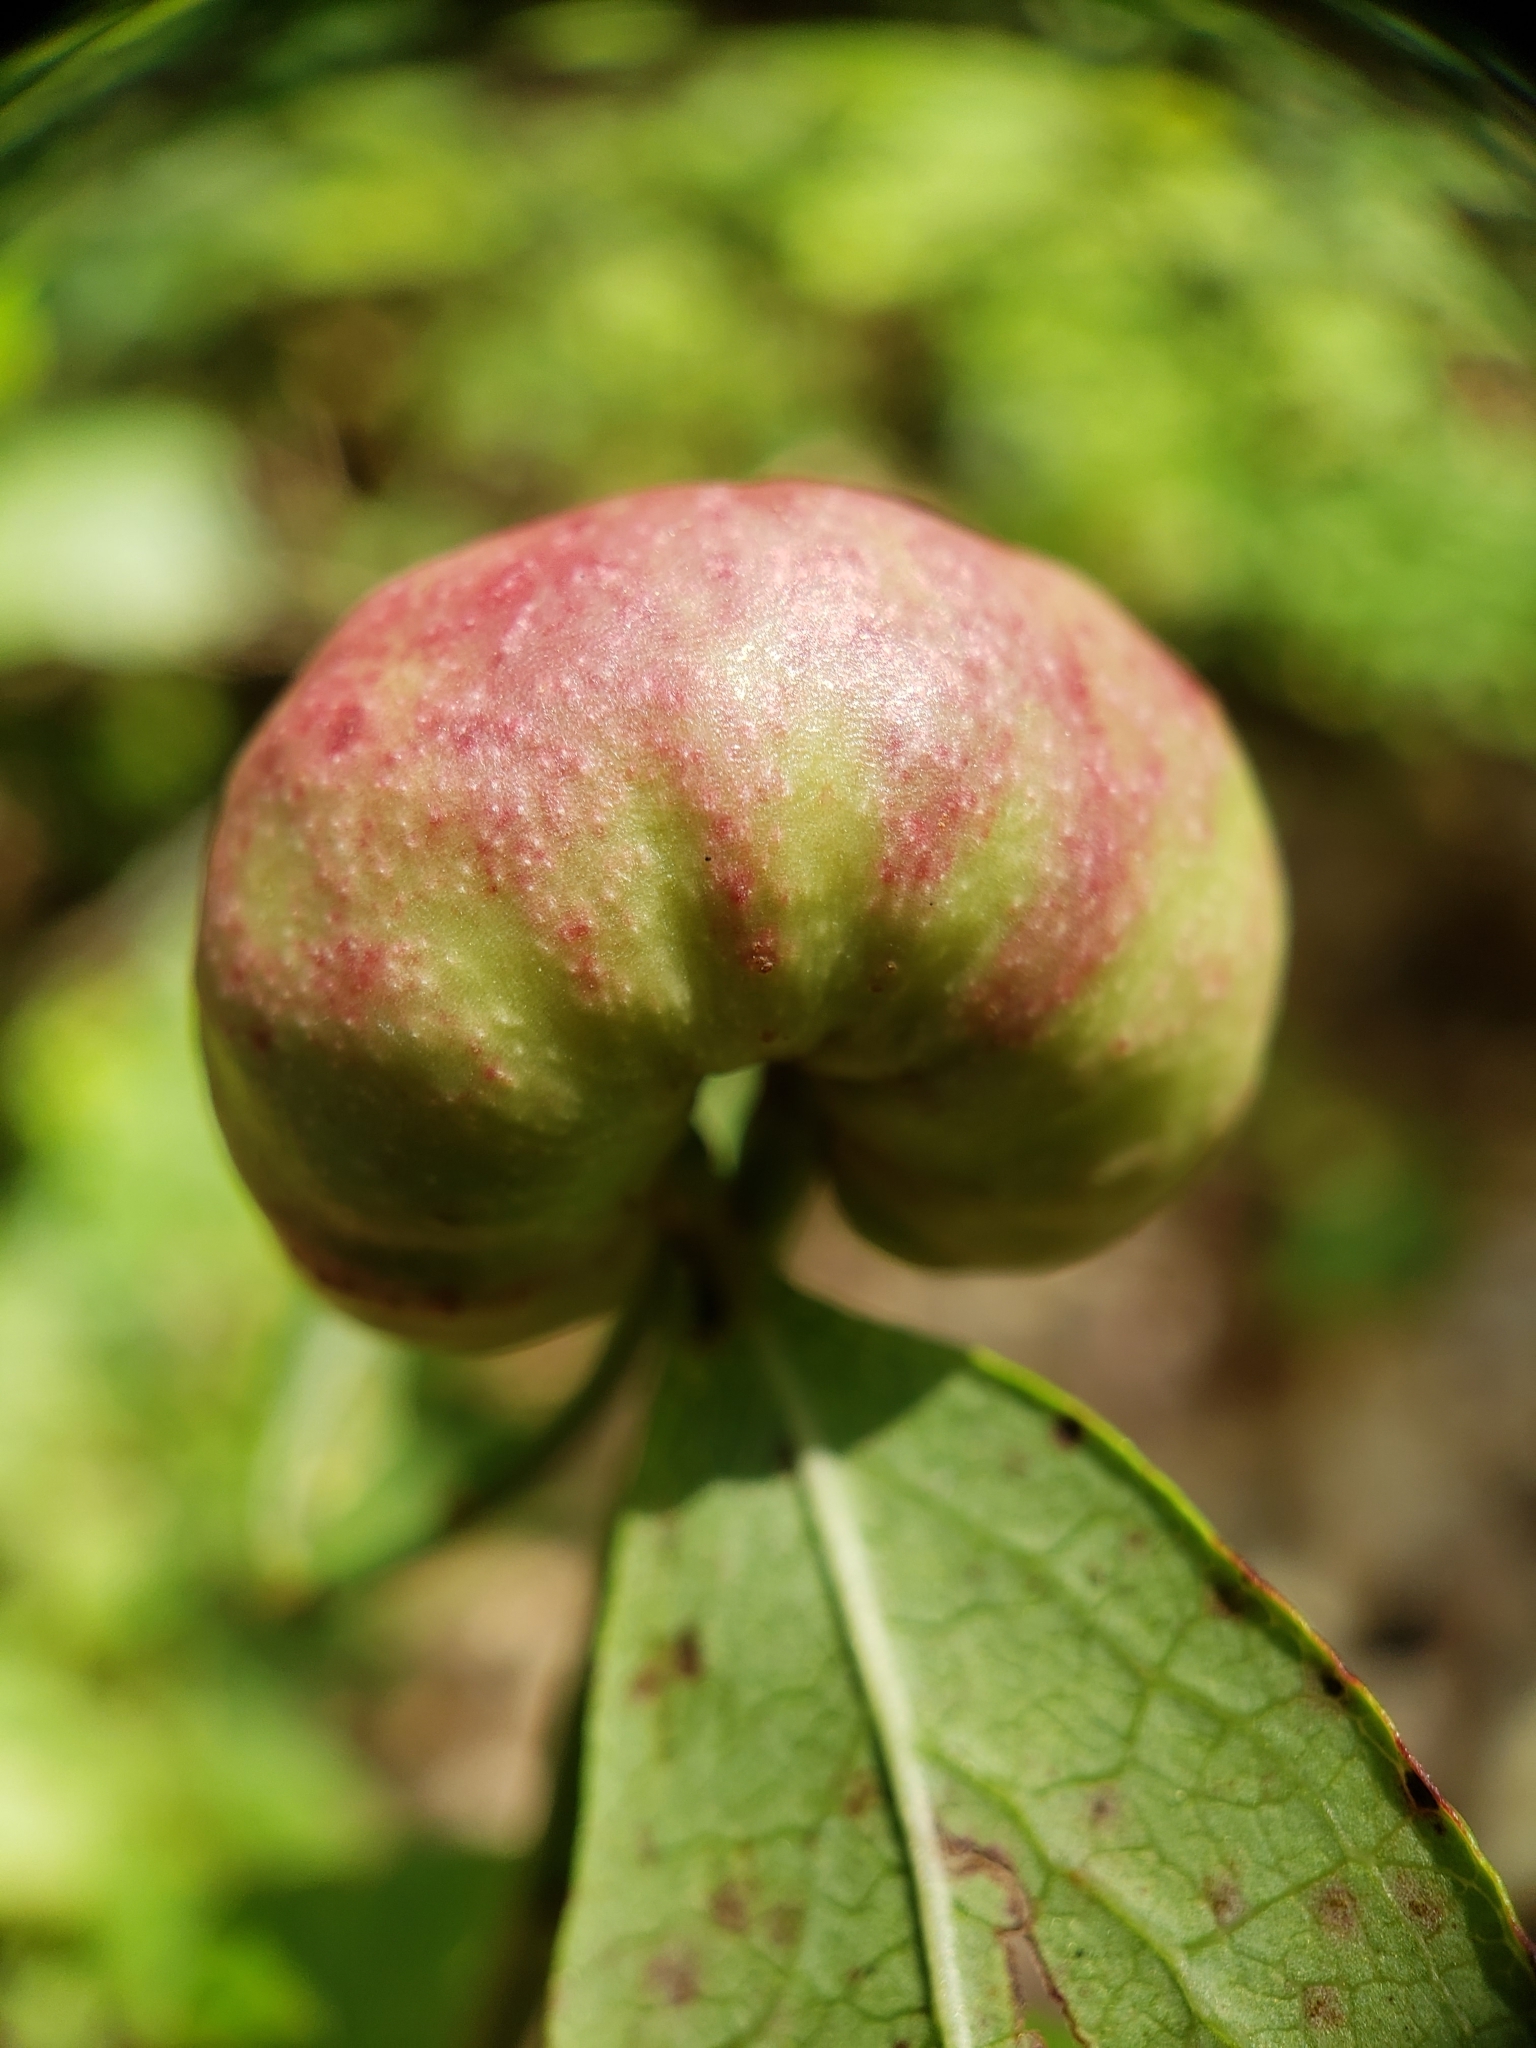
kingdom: Animalia
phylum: Arthropoda
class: Insecta
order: Hymenoptera
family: Pteromalidae
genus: Hemadas
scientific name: Hemadas nubilipennis
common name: Blueberry stem gall wasp
